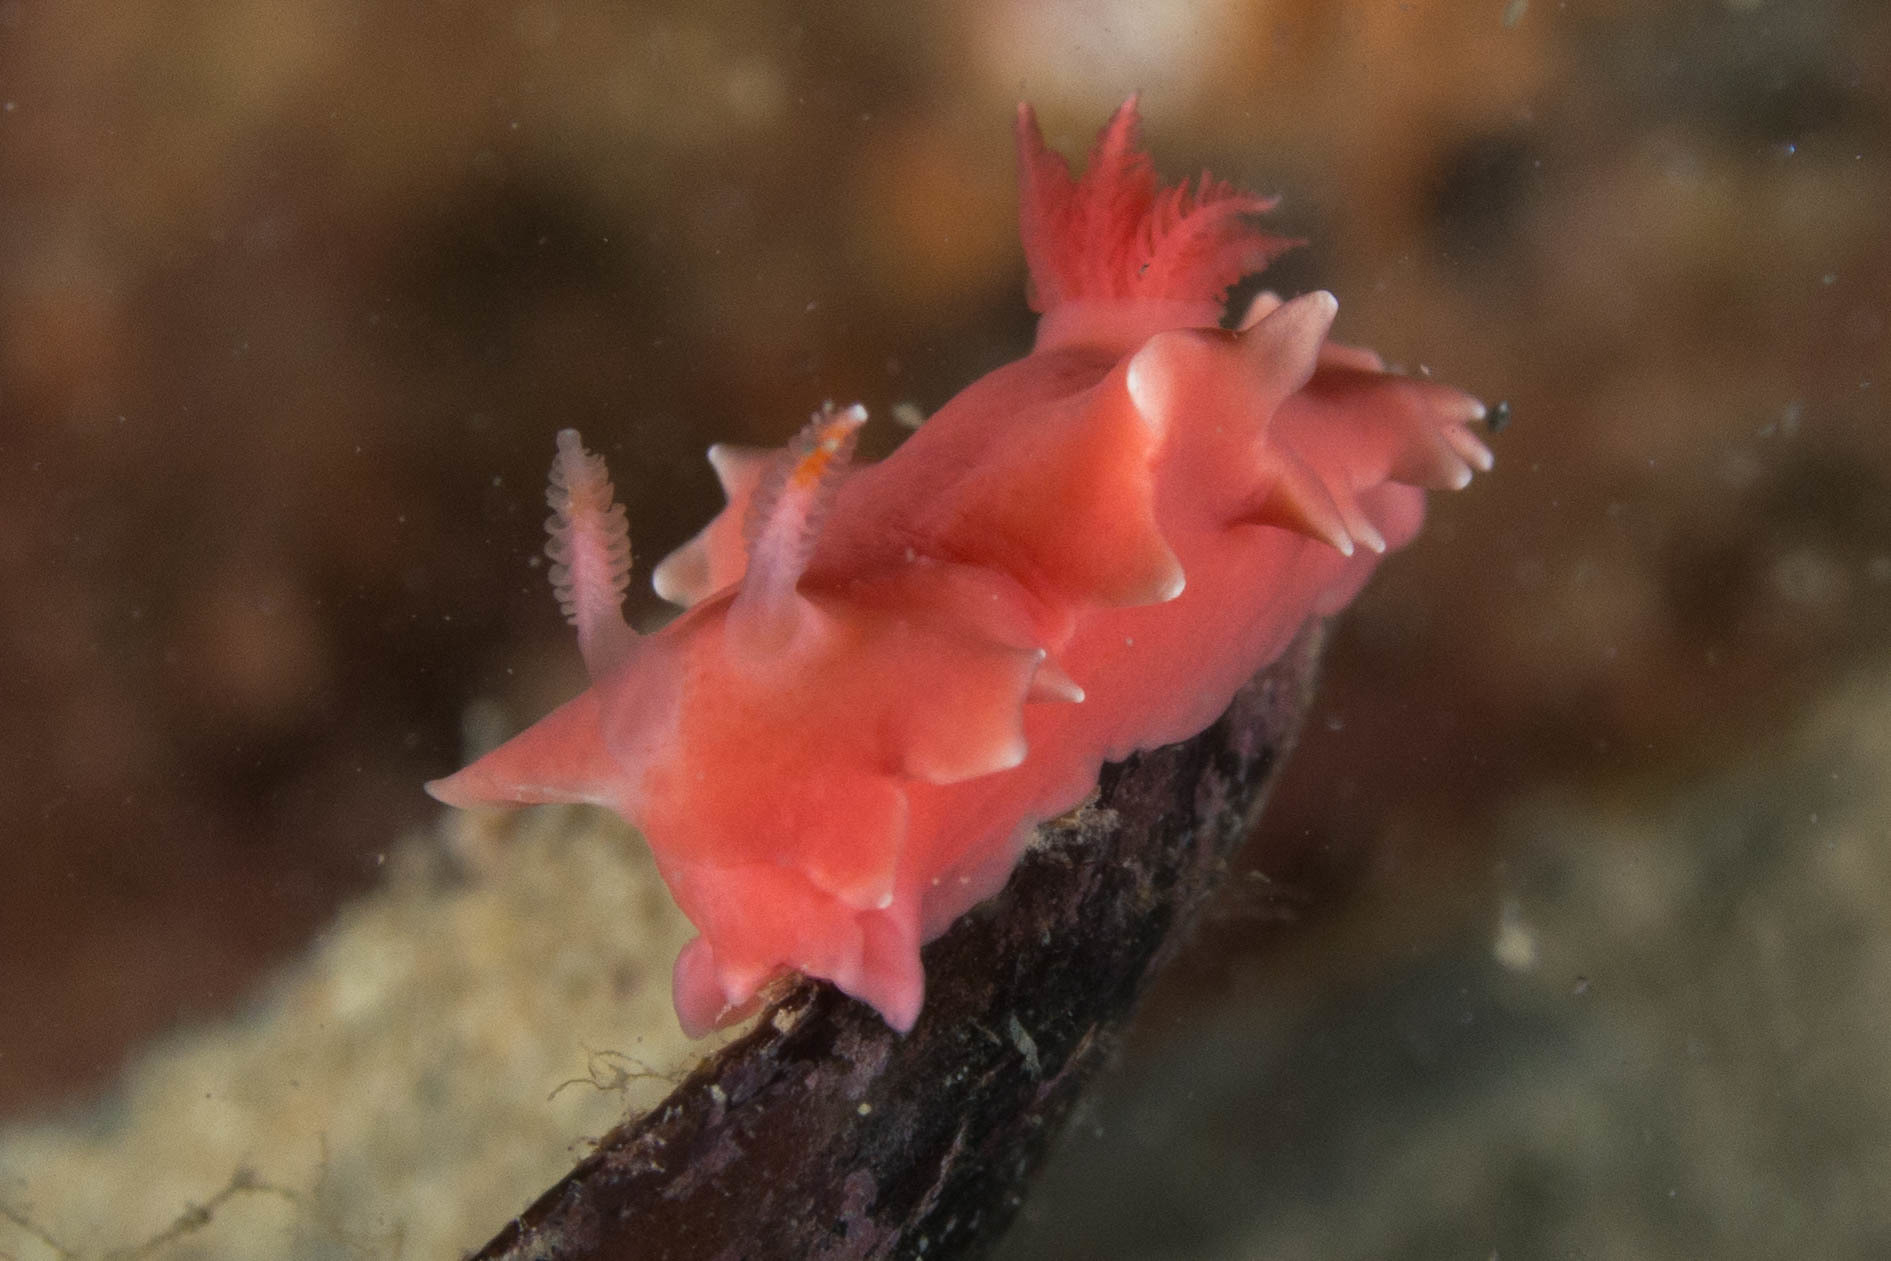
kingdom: Animalia
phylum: Mollusca
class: Gastropoda
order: Nudibranchia
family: Chromodorididae
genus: Verconia
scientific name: Verconia verconis
